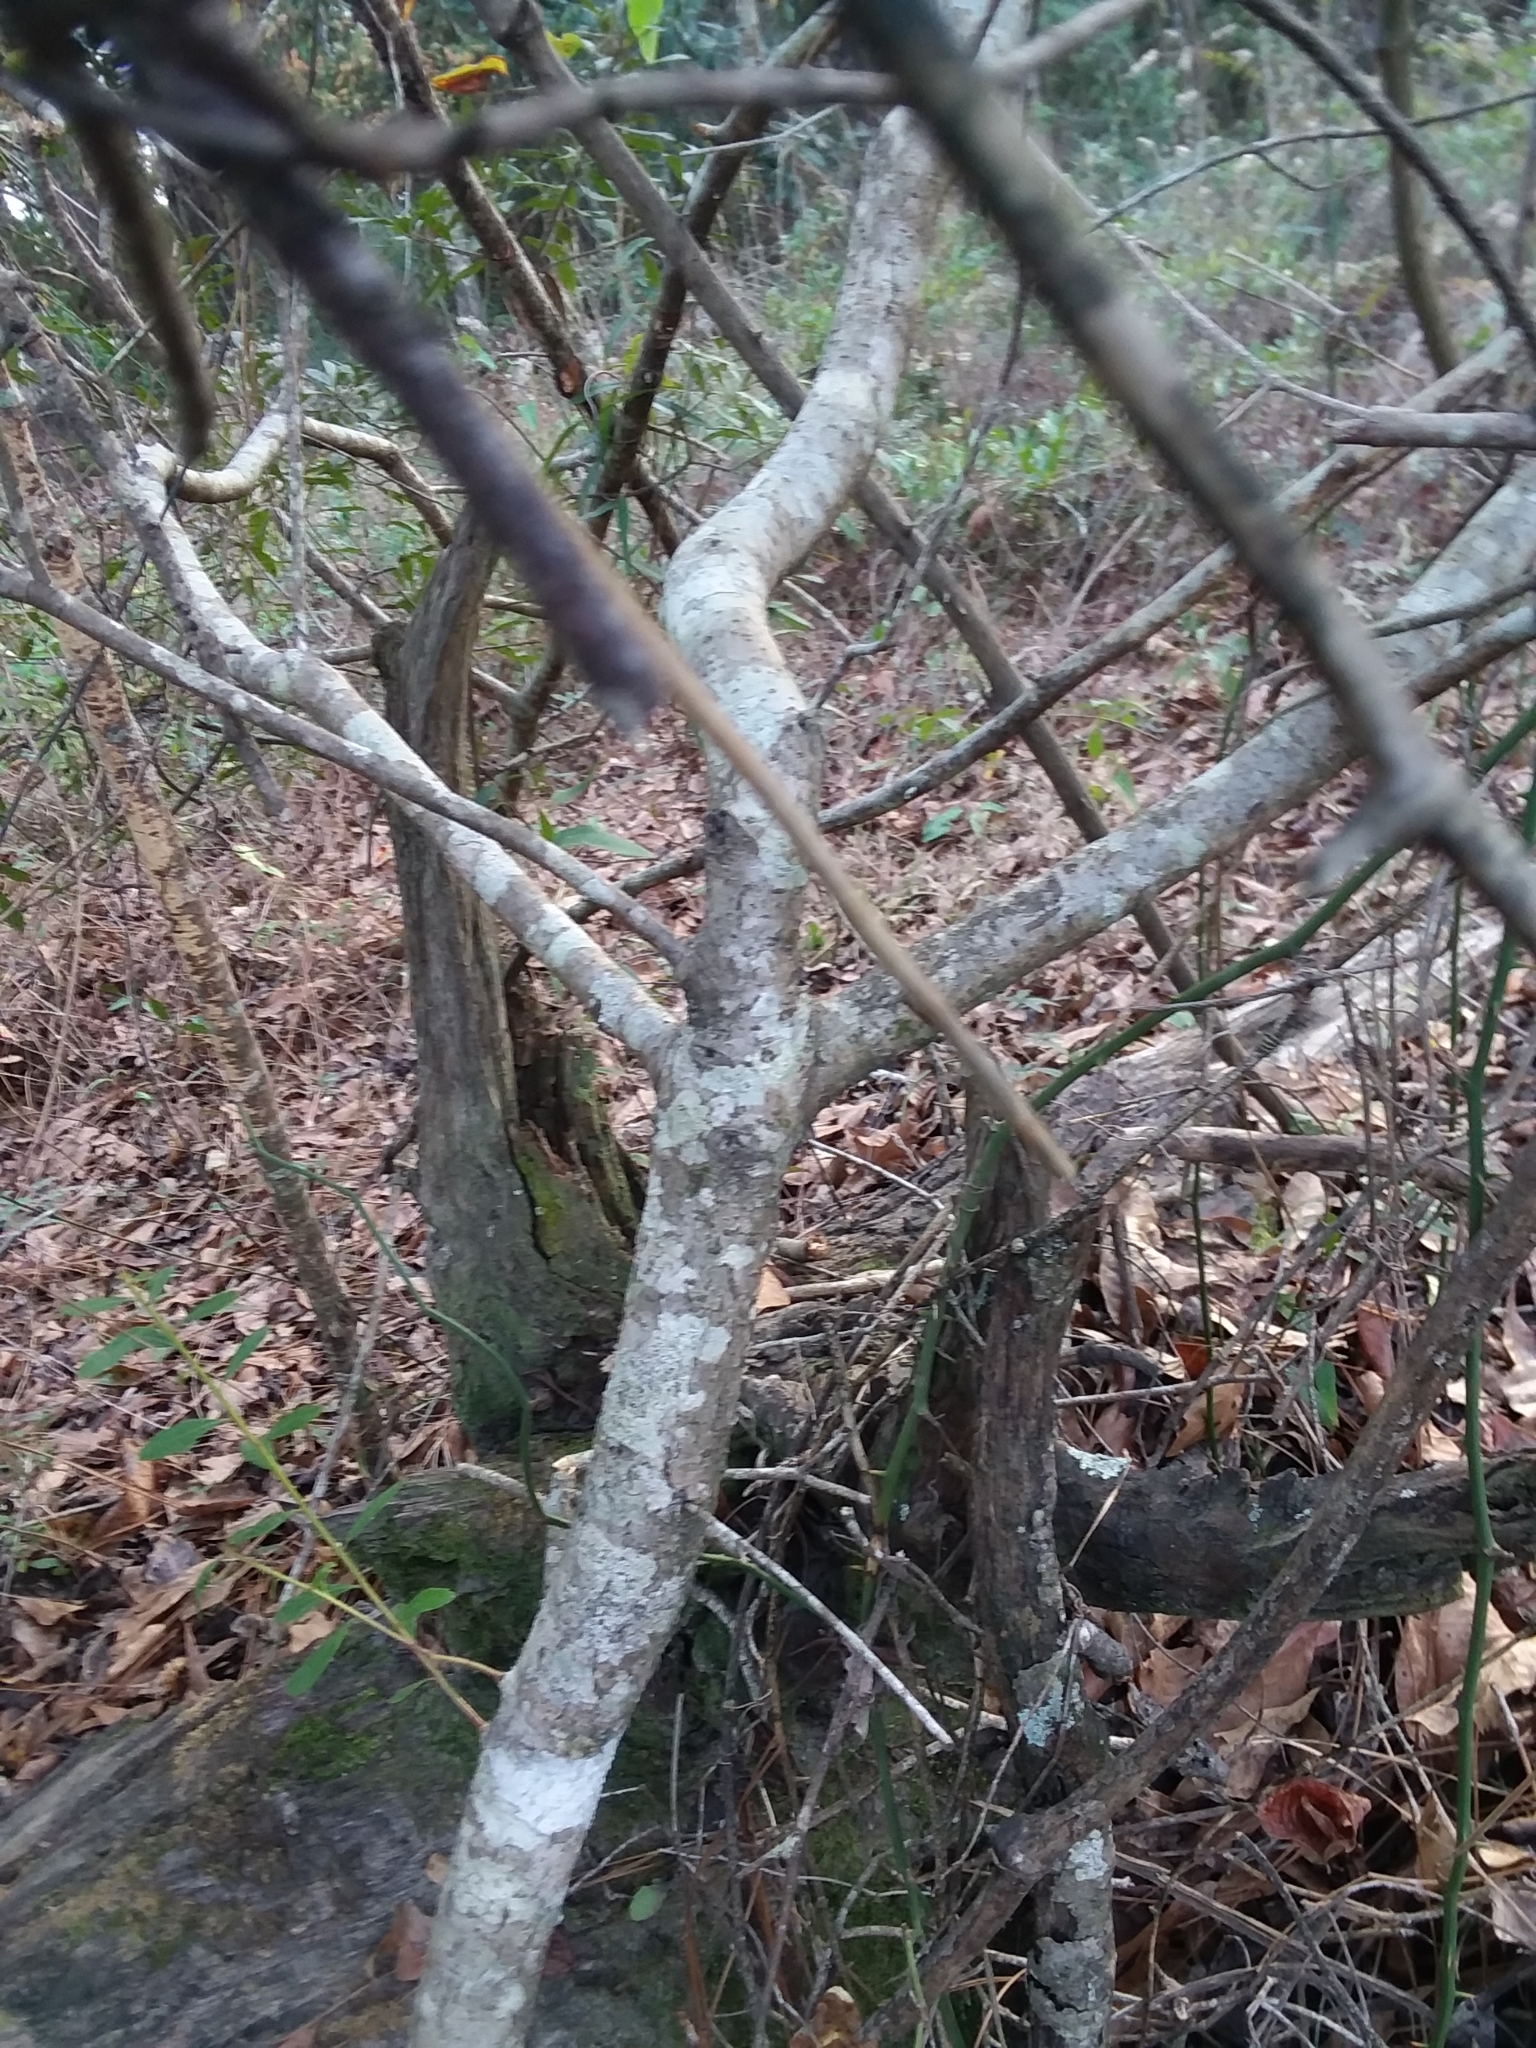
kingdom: Plantae
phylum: Tracheophyta
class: Magnoliopsida
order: Fagales
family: Myricaceae
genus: Morella
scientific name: Morella cerifera
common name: Wax myrtle
